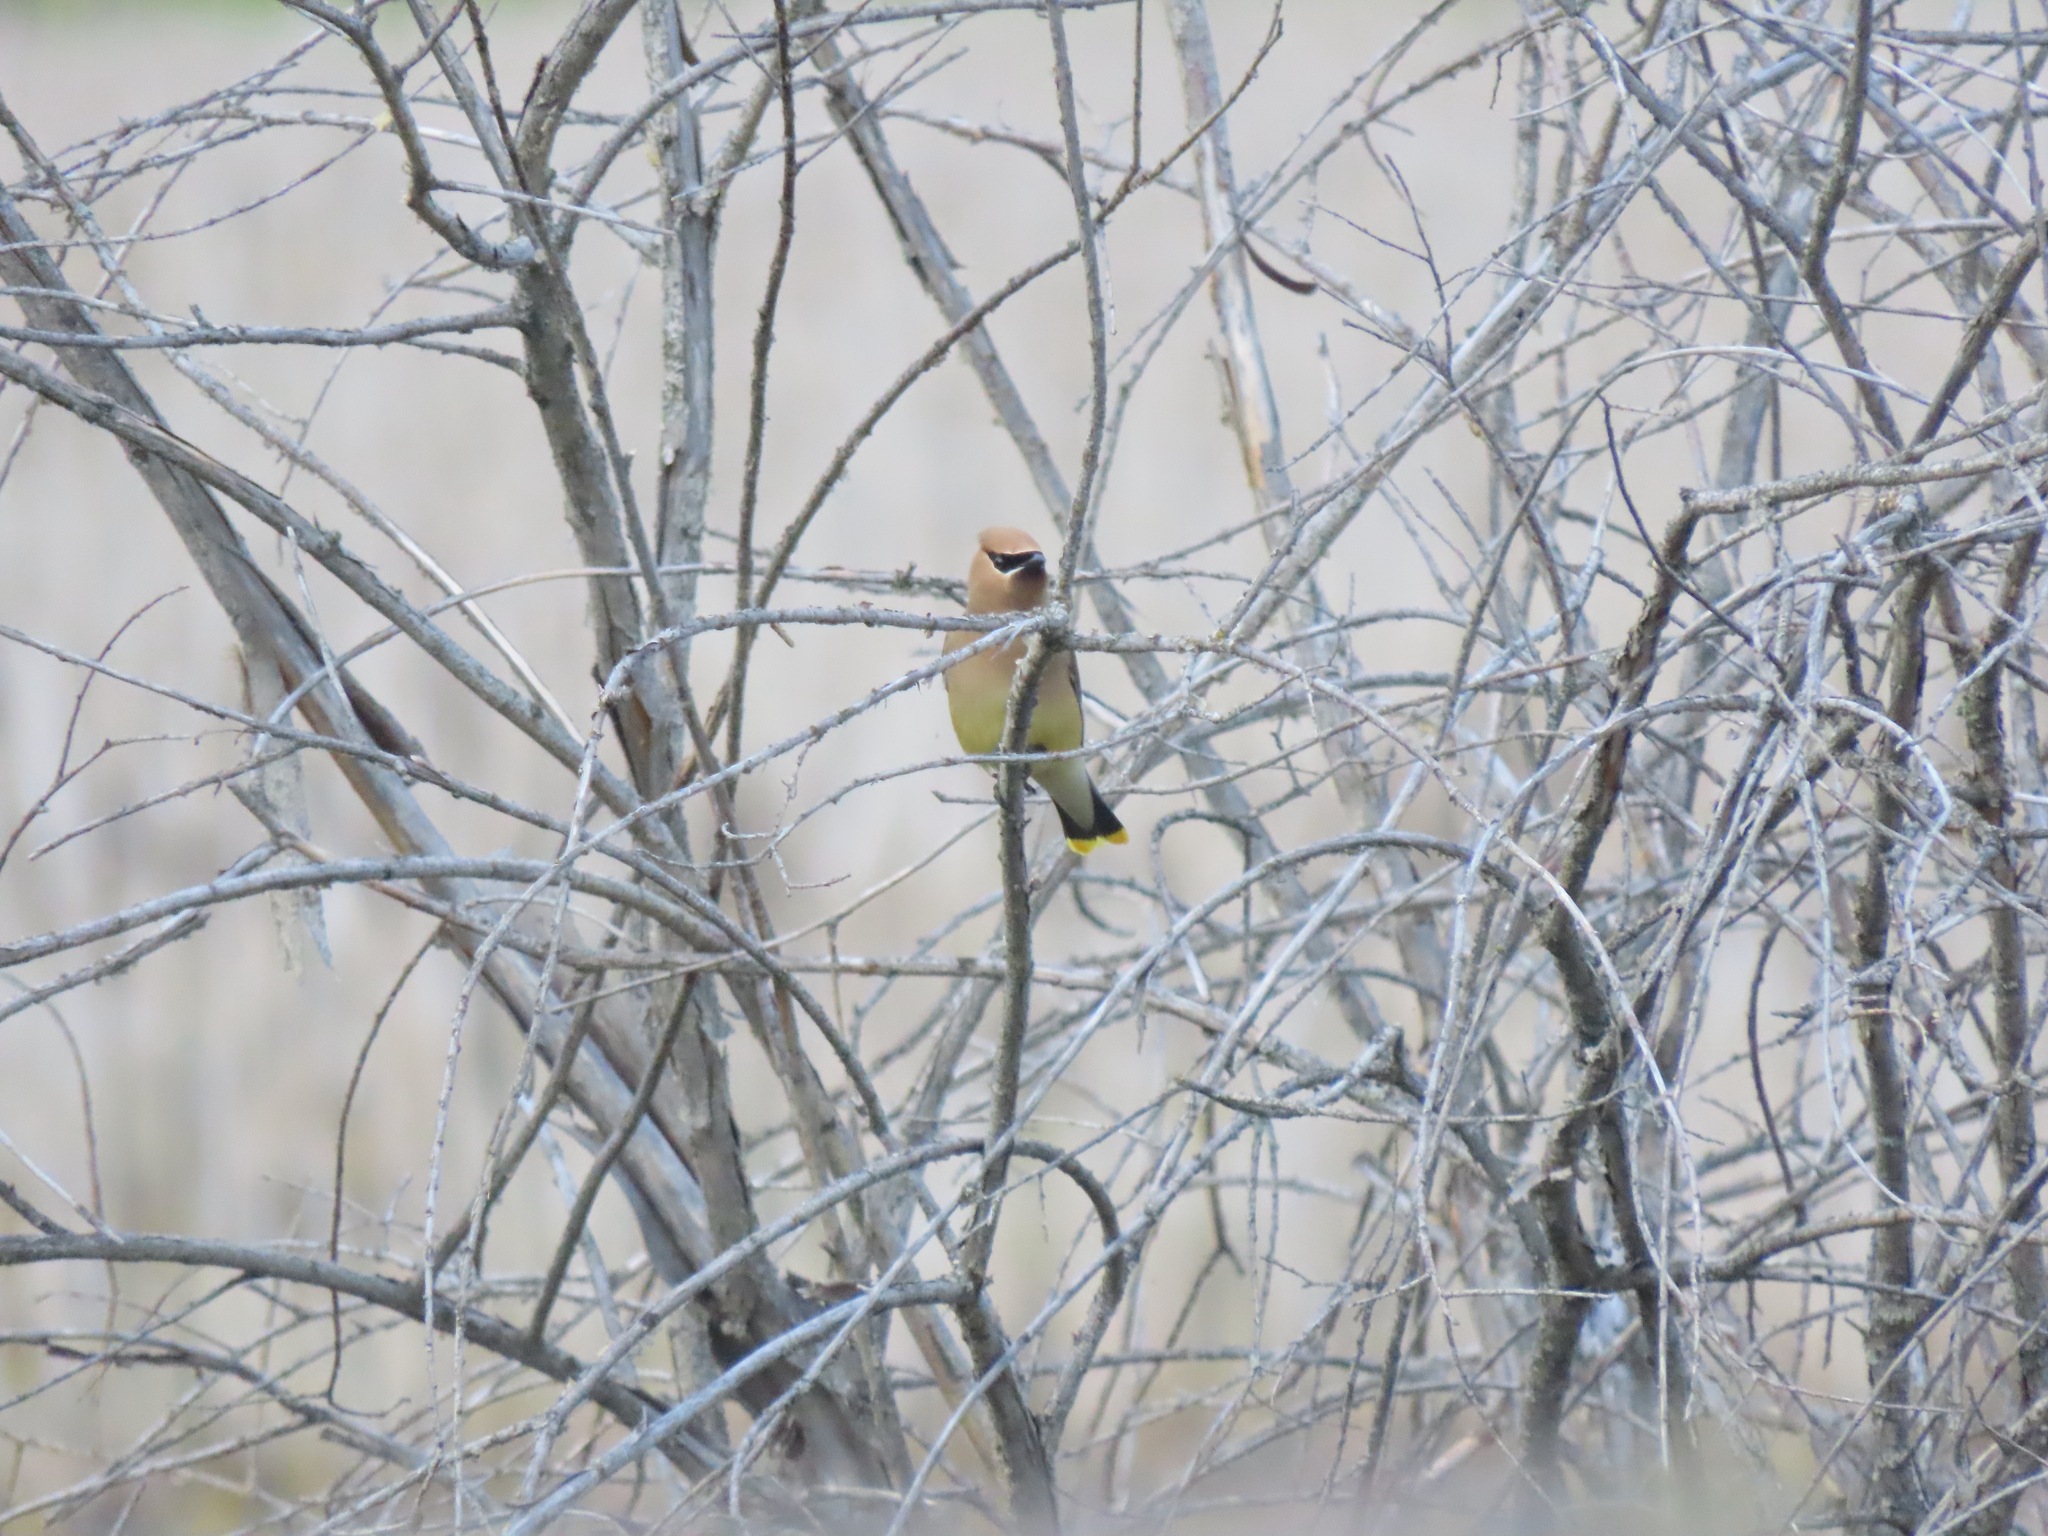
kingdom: Animalia
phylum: Chordata
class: Aves
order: Passeriformes
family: Bombycillidae
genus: Bombycilla
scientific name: Bombycilla cedrorum
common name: Cedar waxwing
